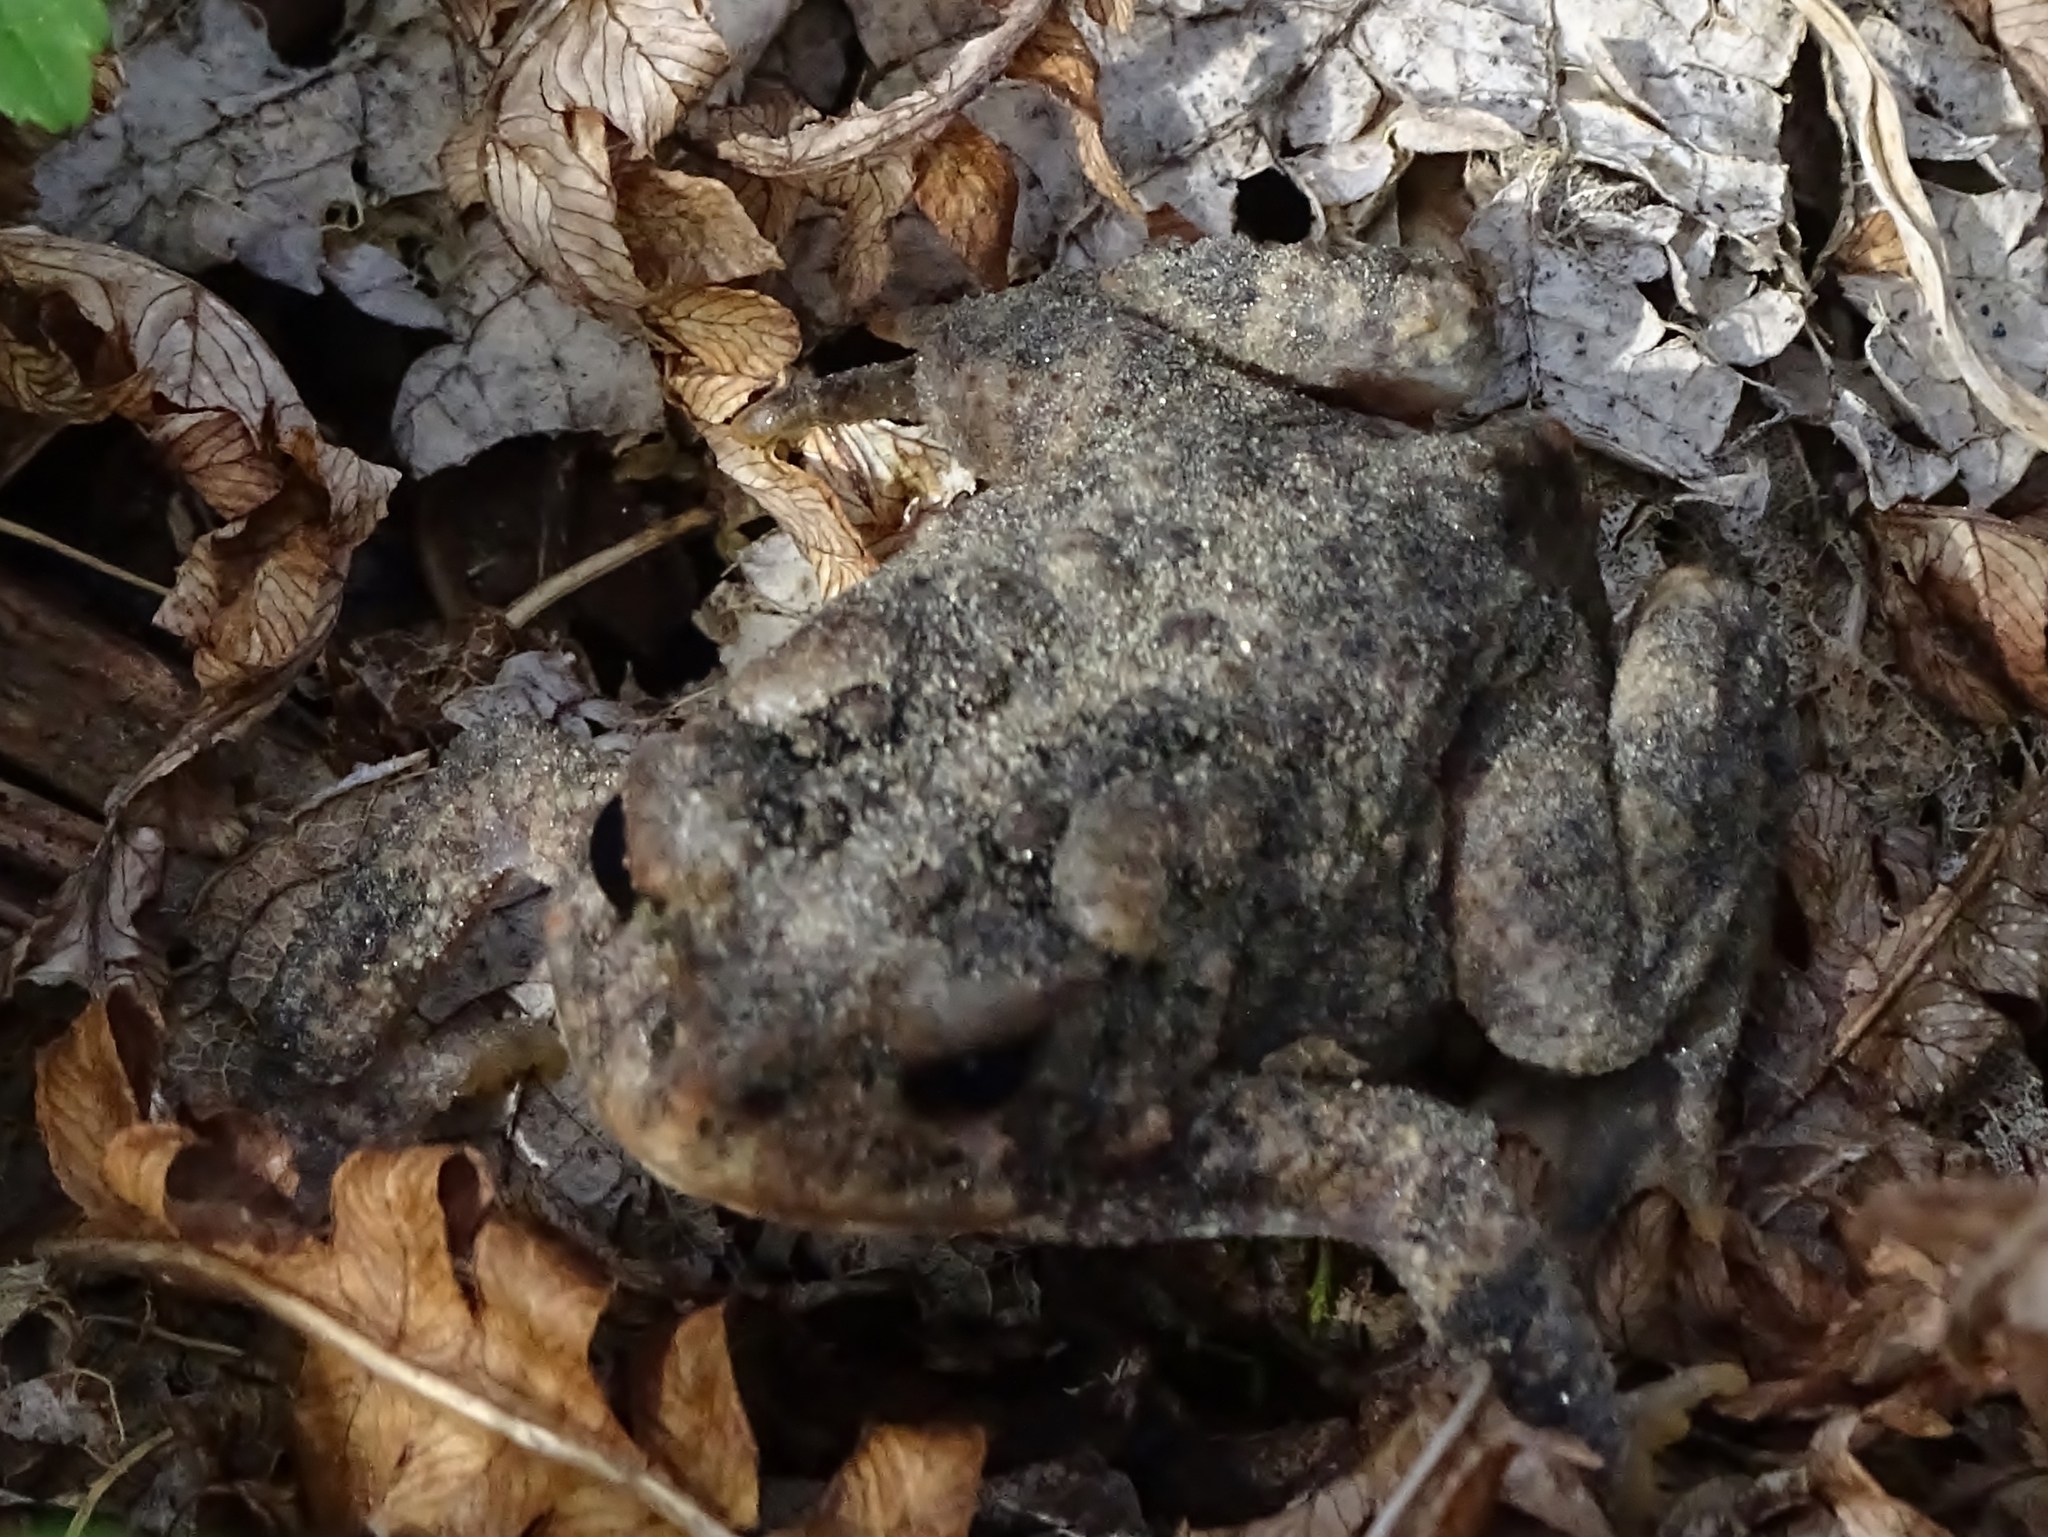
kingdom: Animalia
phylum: Chordata
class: Amphibia
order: Anura
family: Bufonidae
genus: Anaxyrus
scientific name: Anaxyrus americanus
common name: American toad
